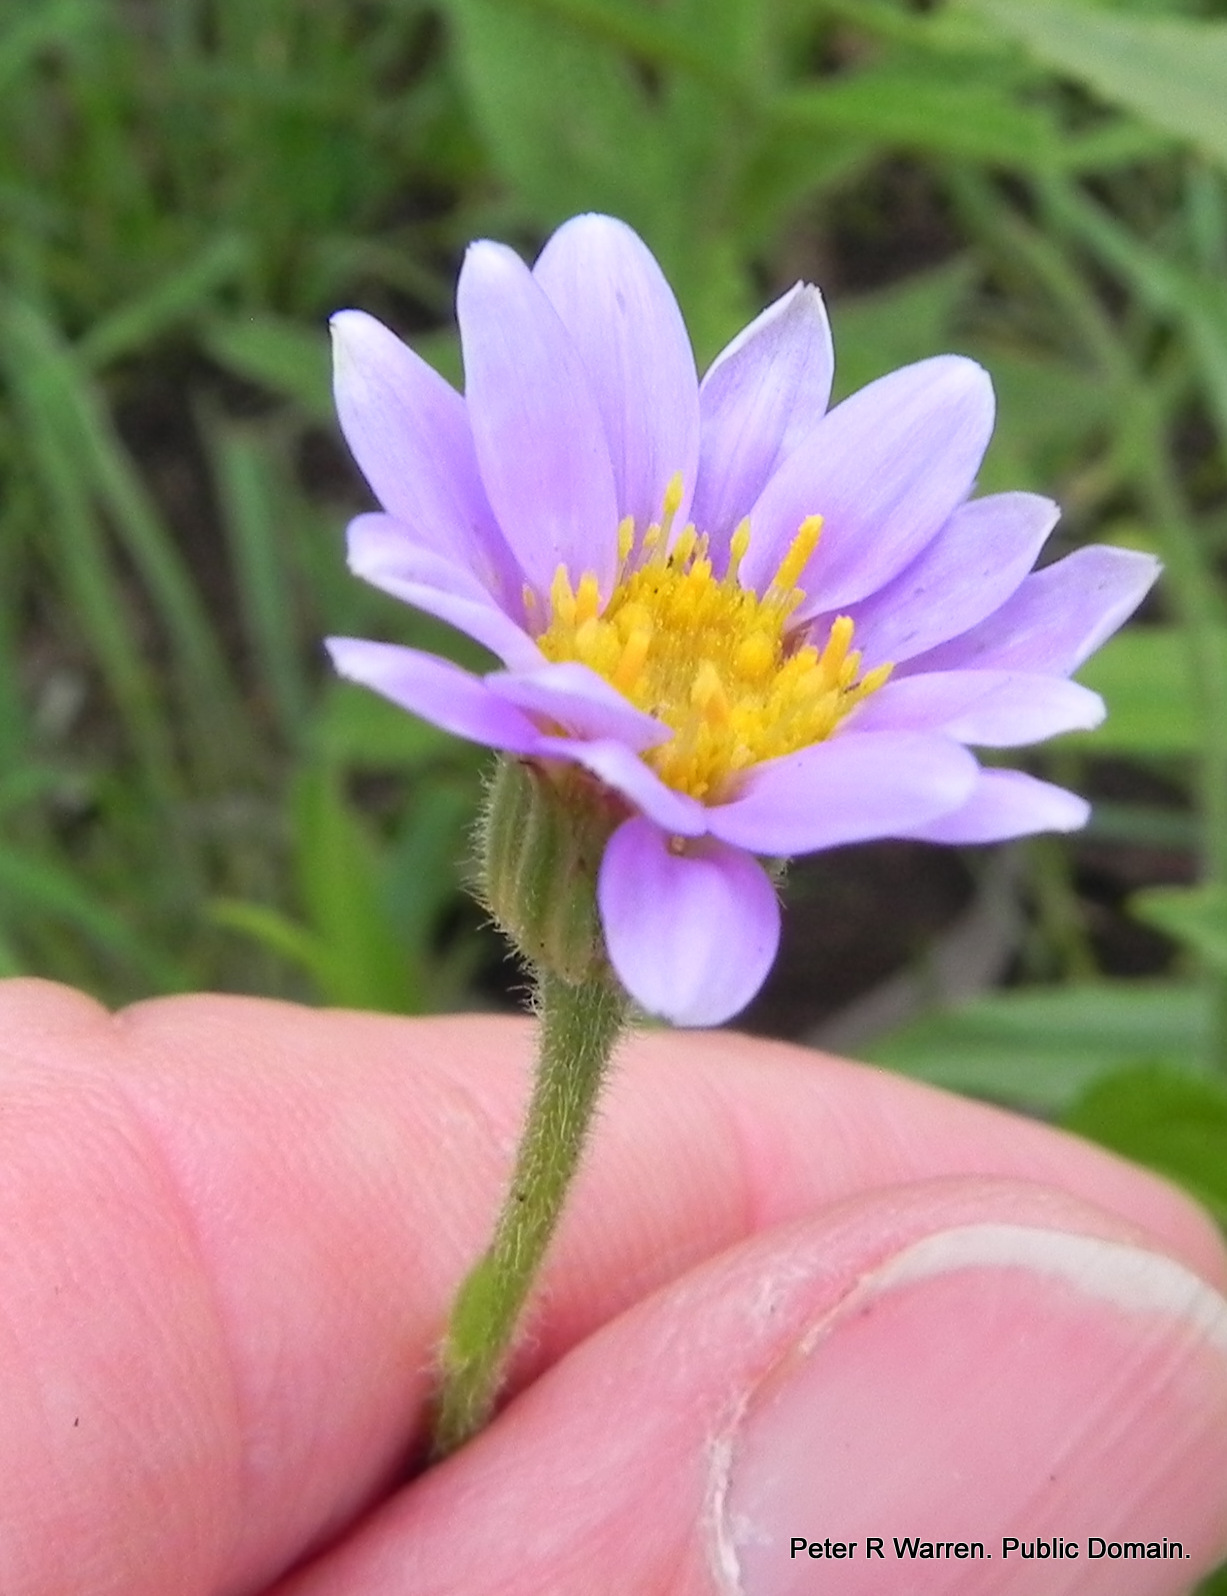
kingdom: Plantae
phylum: Tracheophyta
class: Magnoliopsida
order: Asterales
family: Asteraceae
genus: Afroaster
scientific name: Afroaster hispidus
